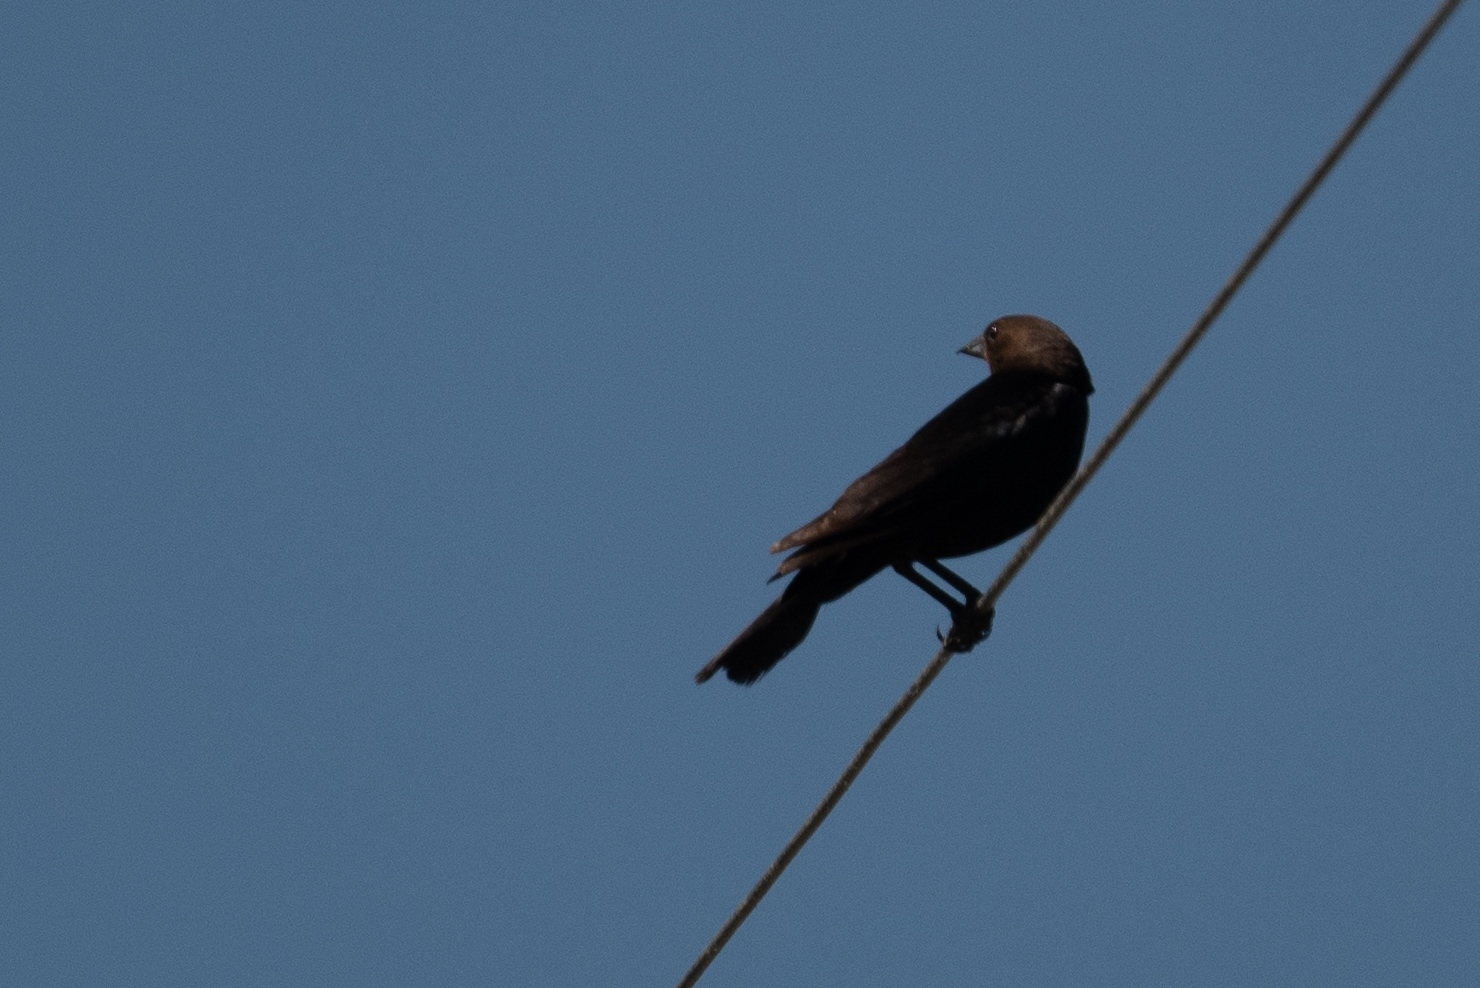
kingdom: Animalia
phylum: Chordata
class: Aves
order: Passeriformes
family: Icteridae
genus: Molothrus
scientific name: Molothrus ater
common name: Brown-headed cowbird
